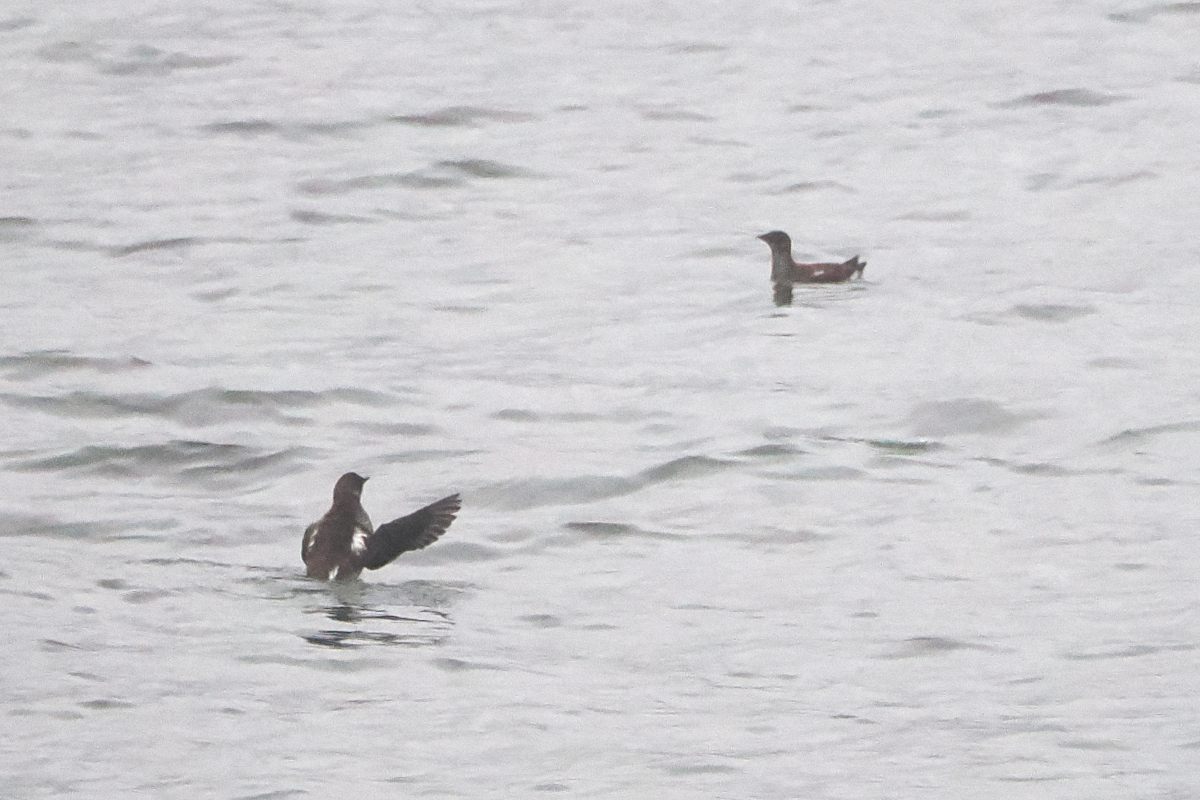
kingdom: Animalia
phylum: Chordata
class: Aves
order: Charadriiformes
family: Alcidae
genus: Brachyramphus
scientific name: Brachyramphus marmoratus
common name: Marbled murrelet
